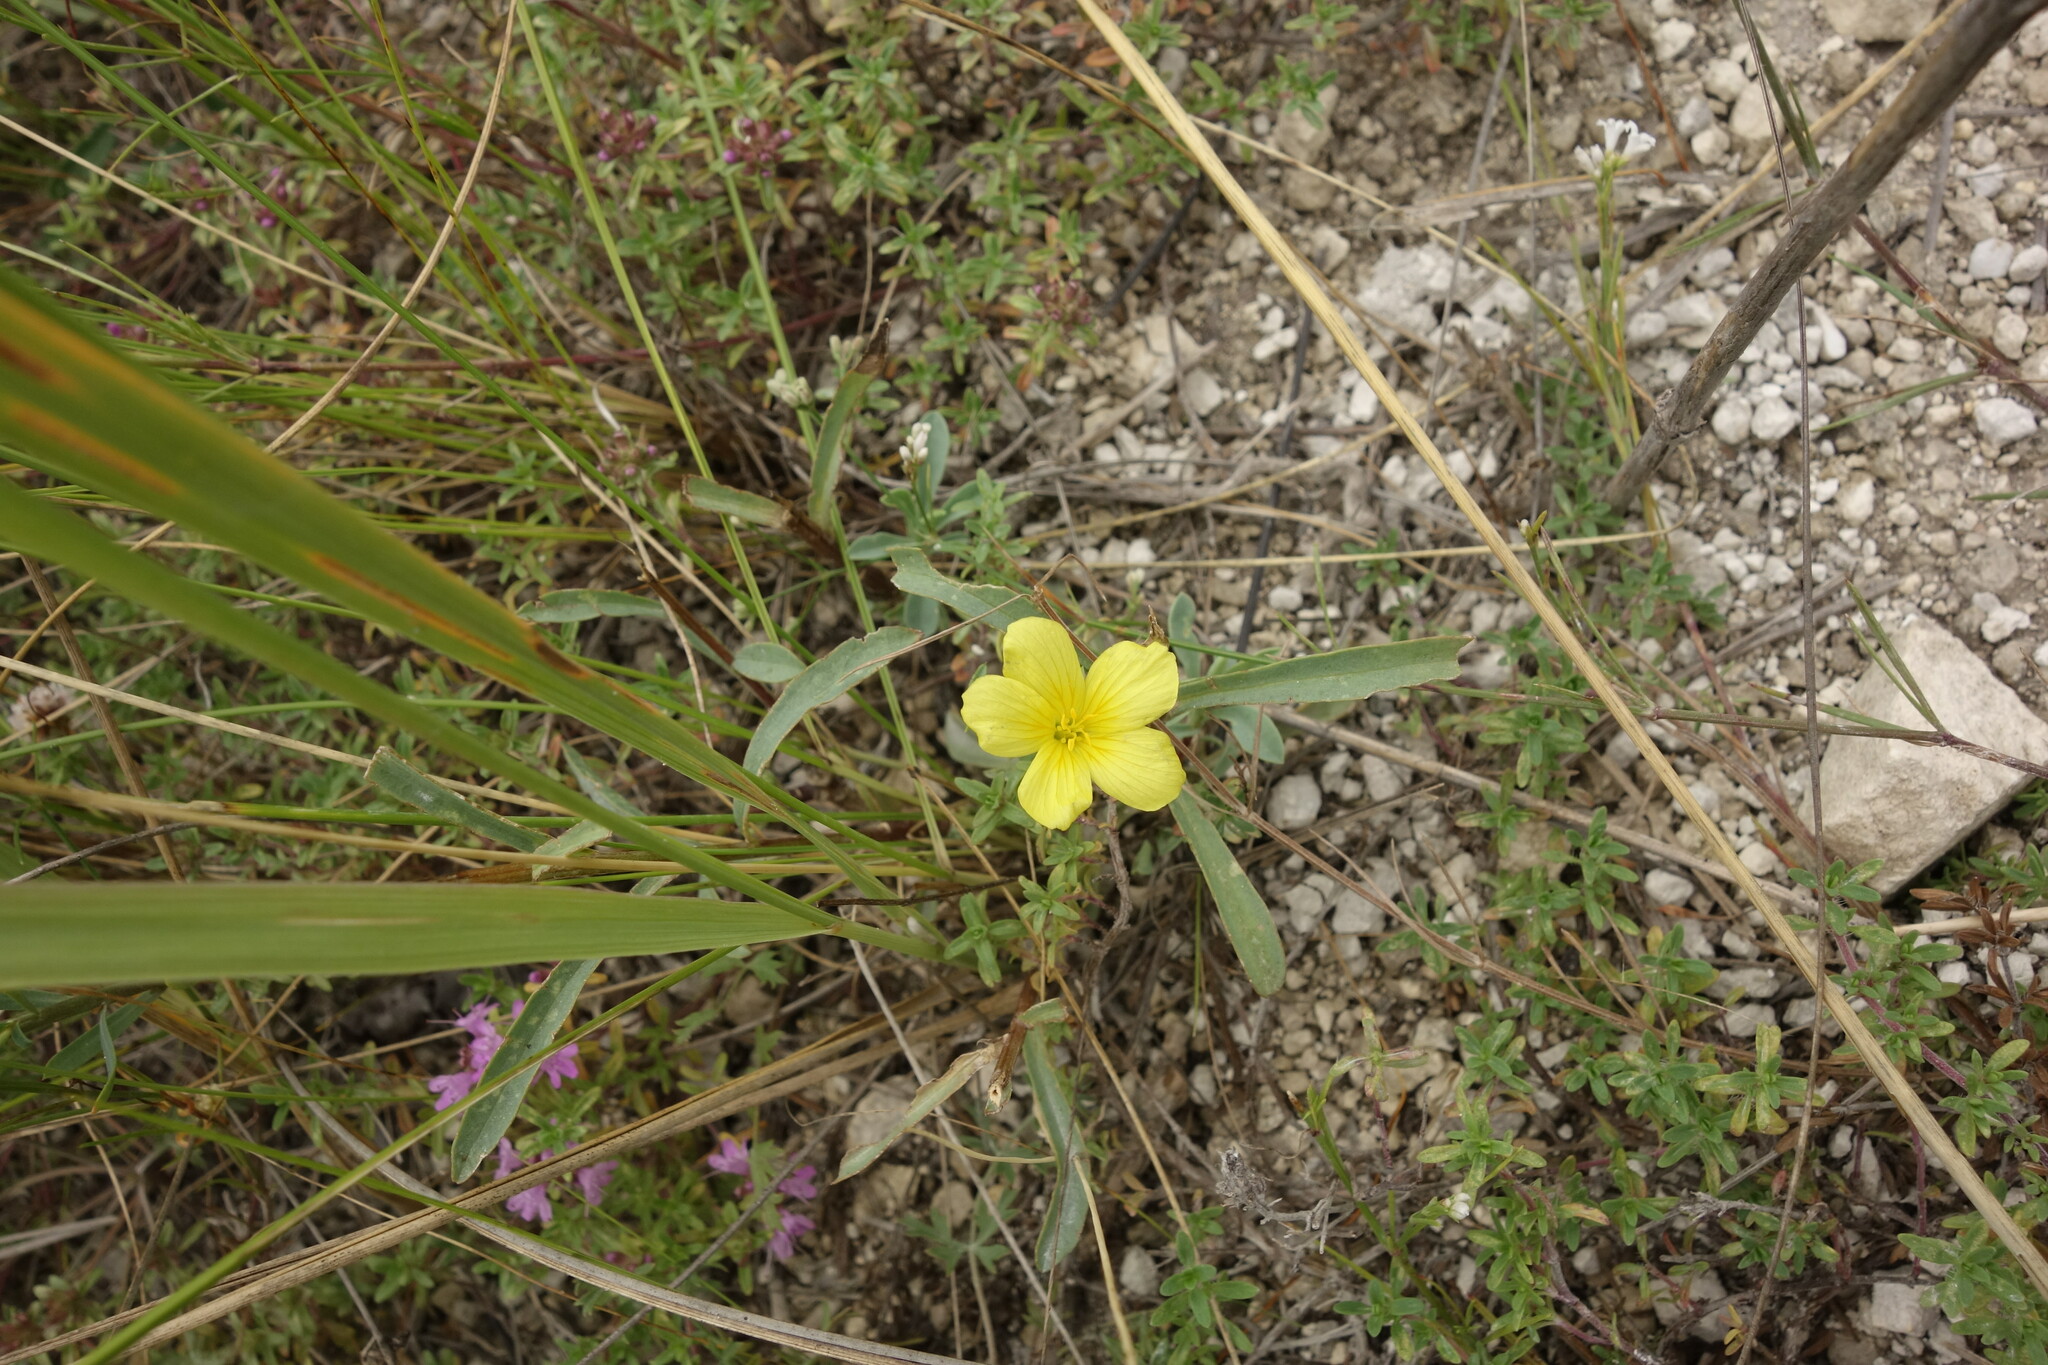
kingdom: Plantae
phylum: Tracheophyta
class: Magnoliopsida
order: Malpighiales
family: Linaceae
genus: Linum
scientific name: Linum ucranicum
